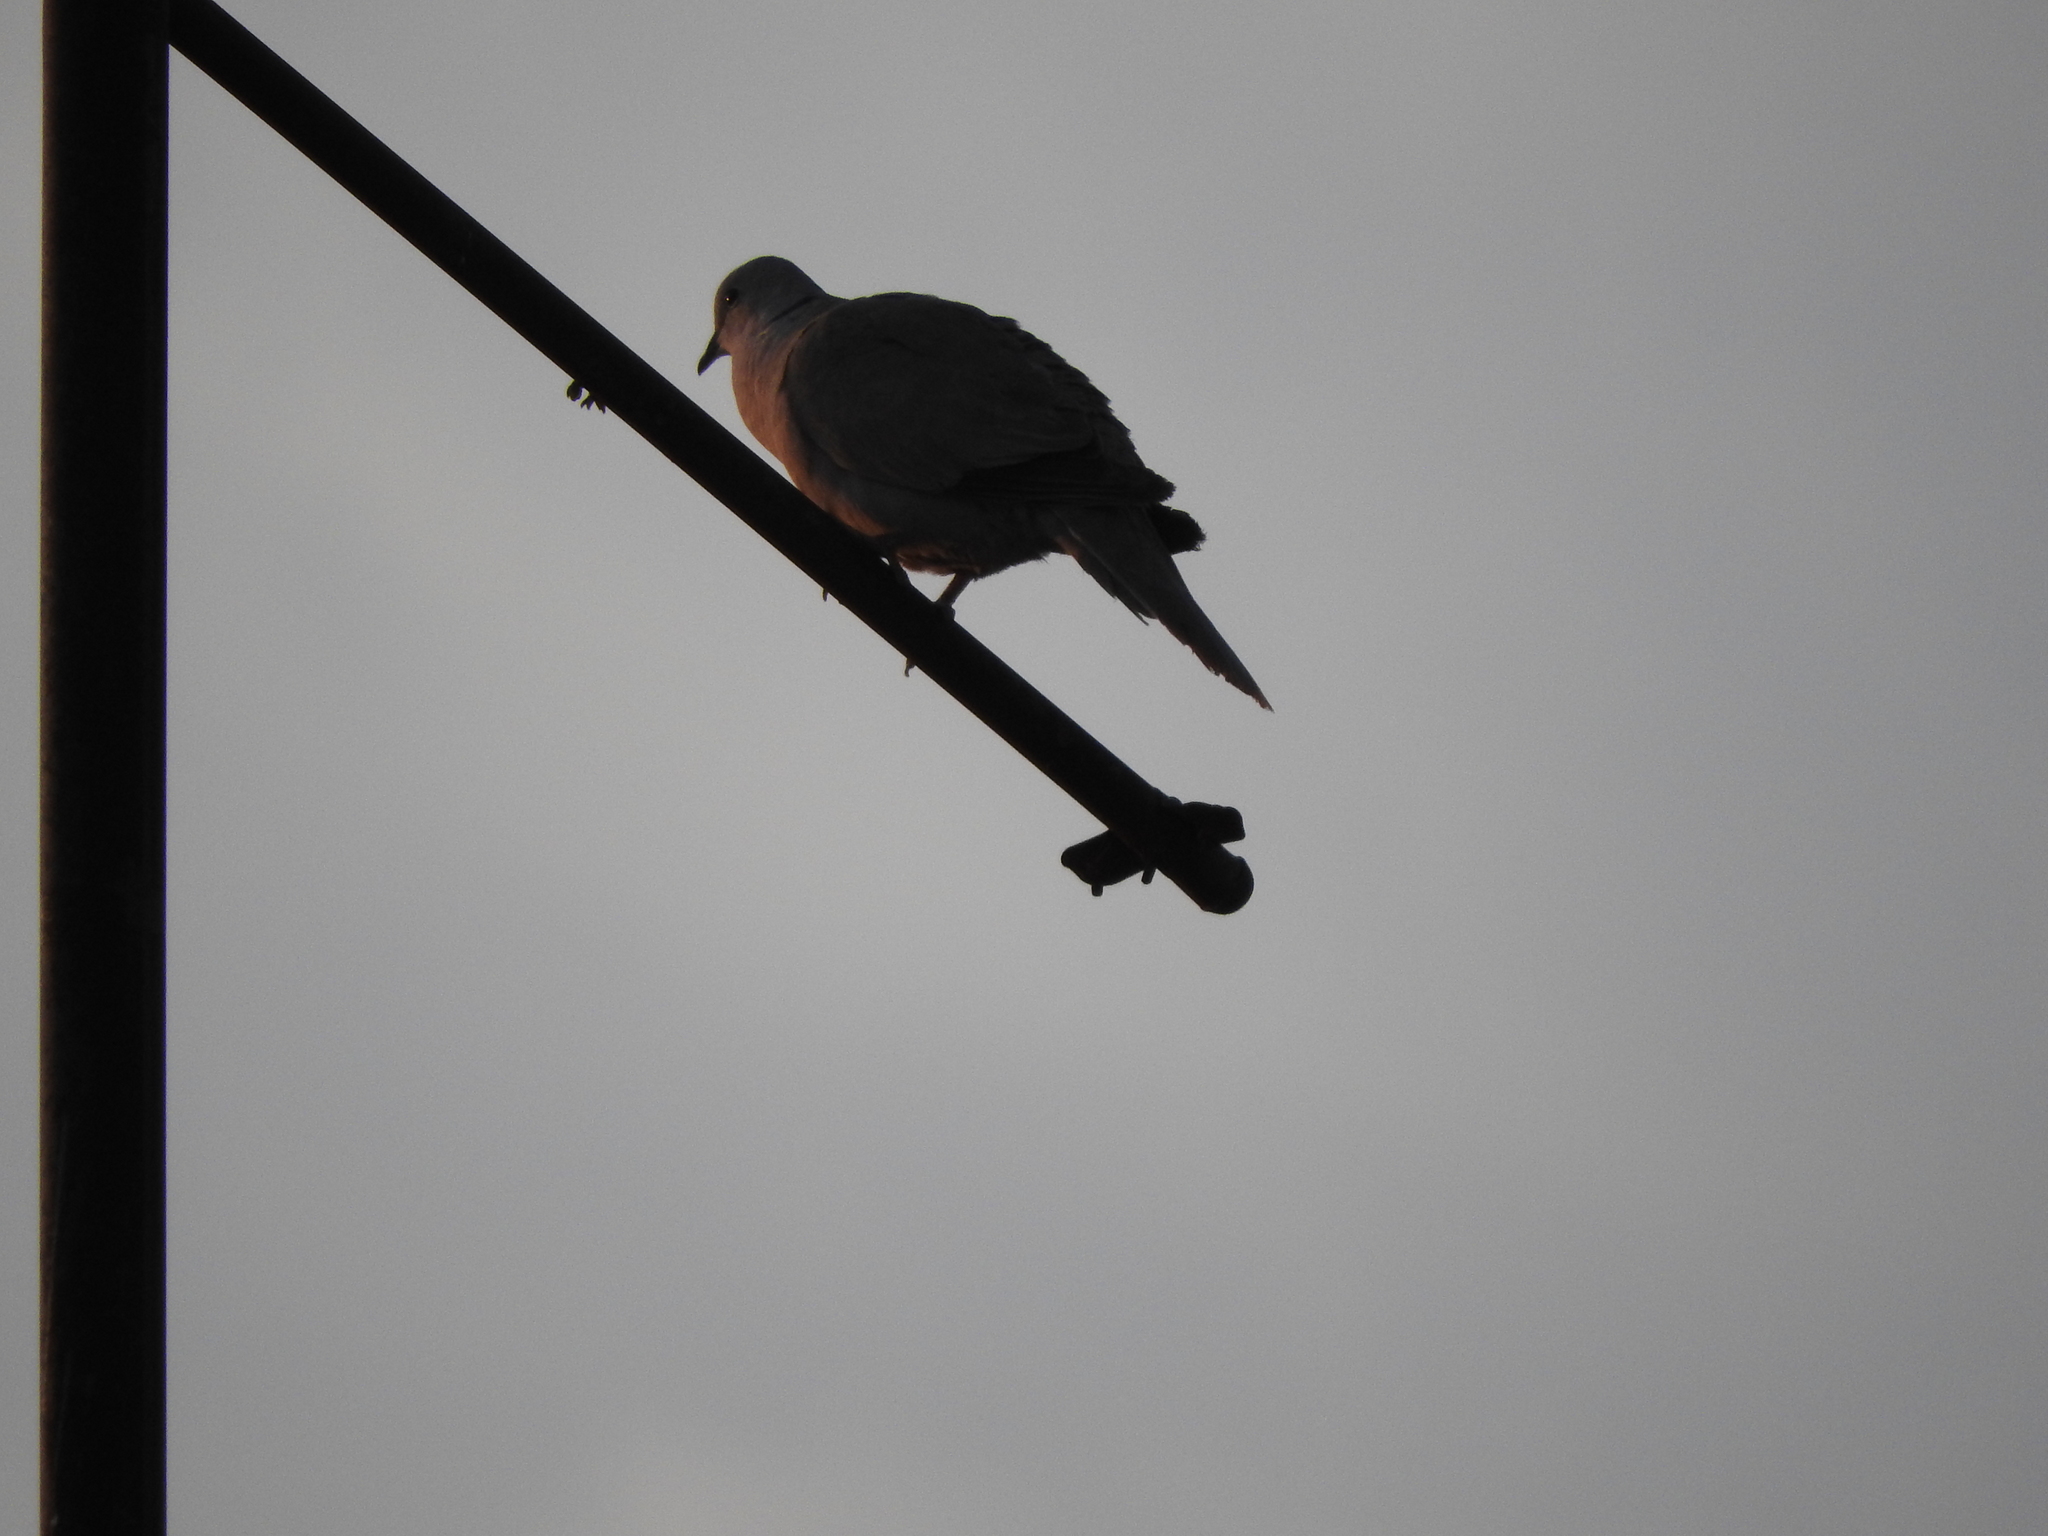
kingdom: Animalia
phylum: Chordata
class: Aves
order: Columbiformes
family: Columbidae
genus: Streptopelia
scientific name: Streptopelia decaocto
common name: Eurasian collared dove
